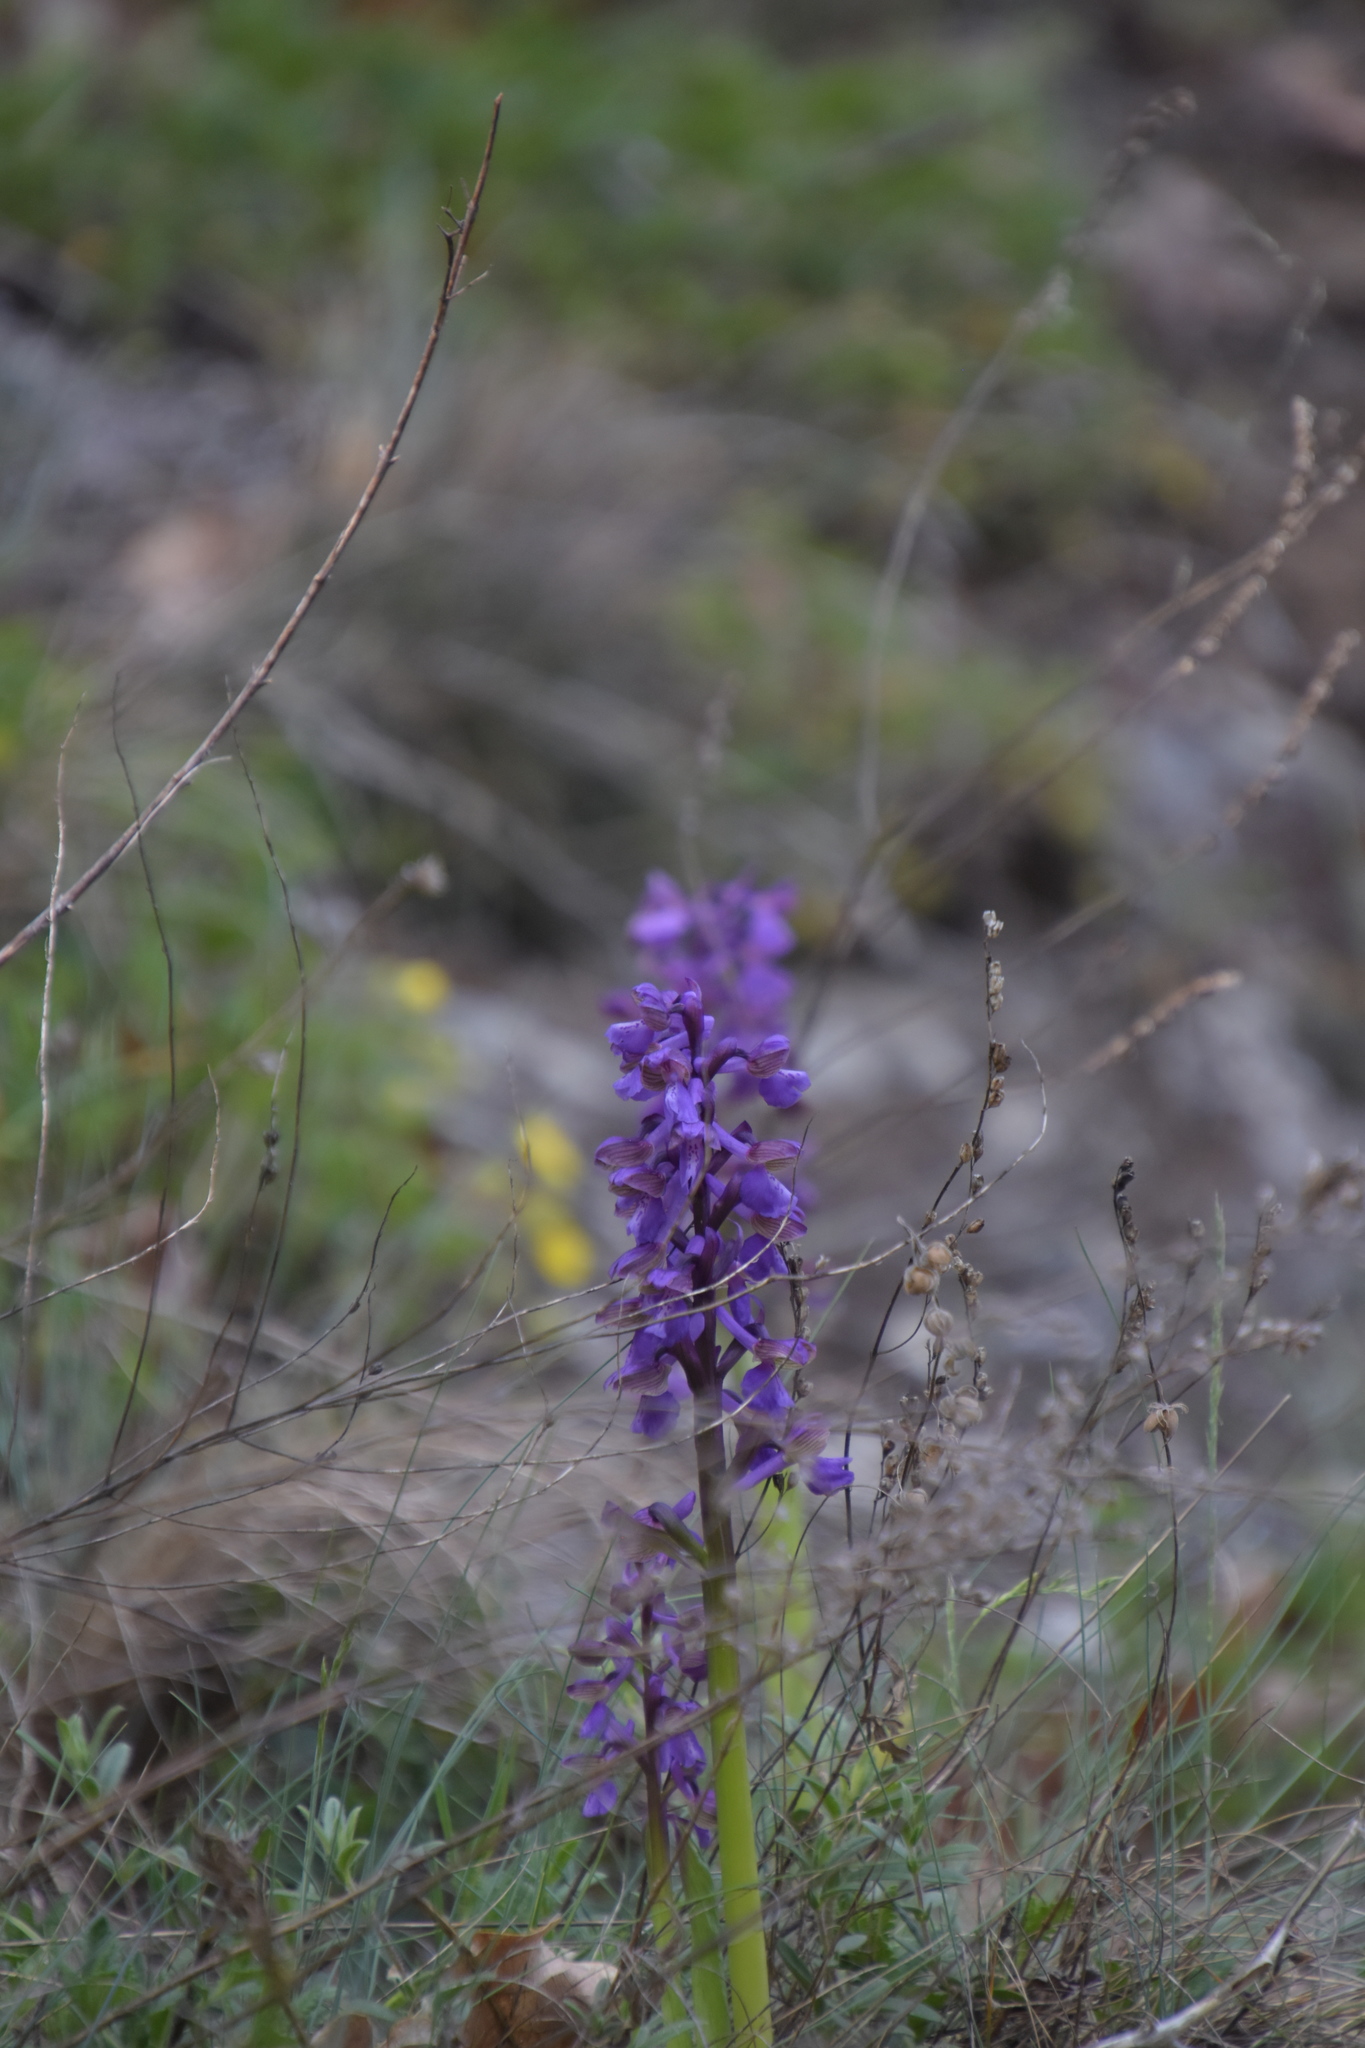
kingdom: Plantae
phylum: Tracheophyta
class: Liliopsida
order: Asparagales
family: Orchidaceae
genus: Anacamptis
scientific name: Anacamptis morio
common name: Green-winged orchid
